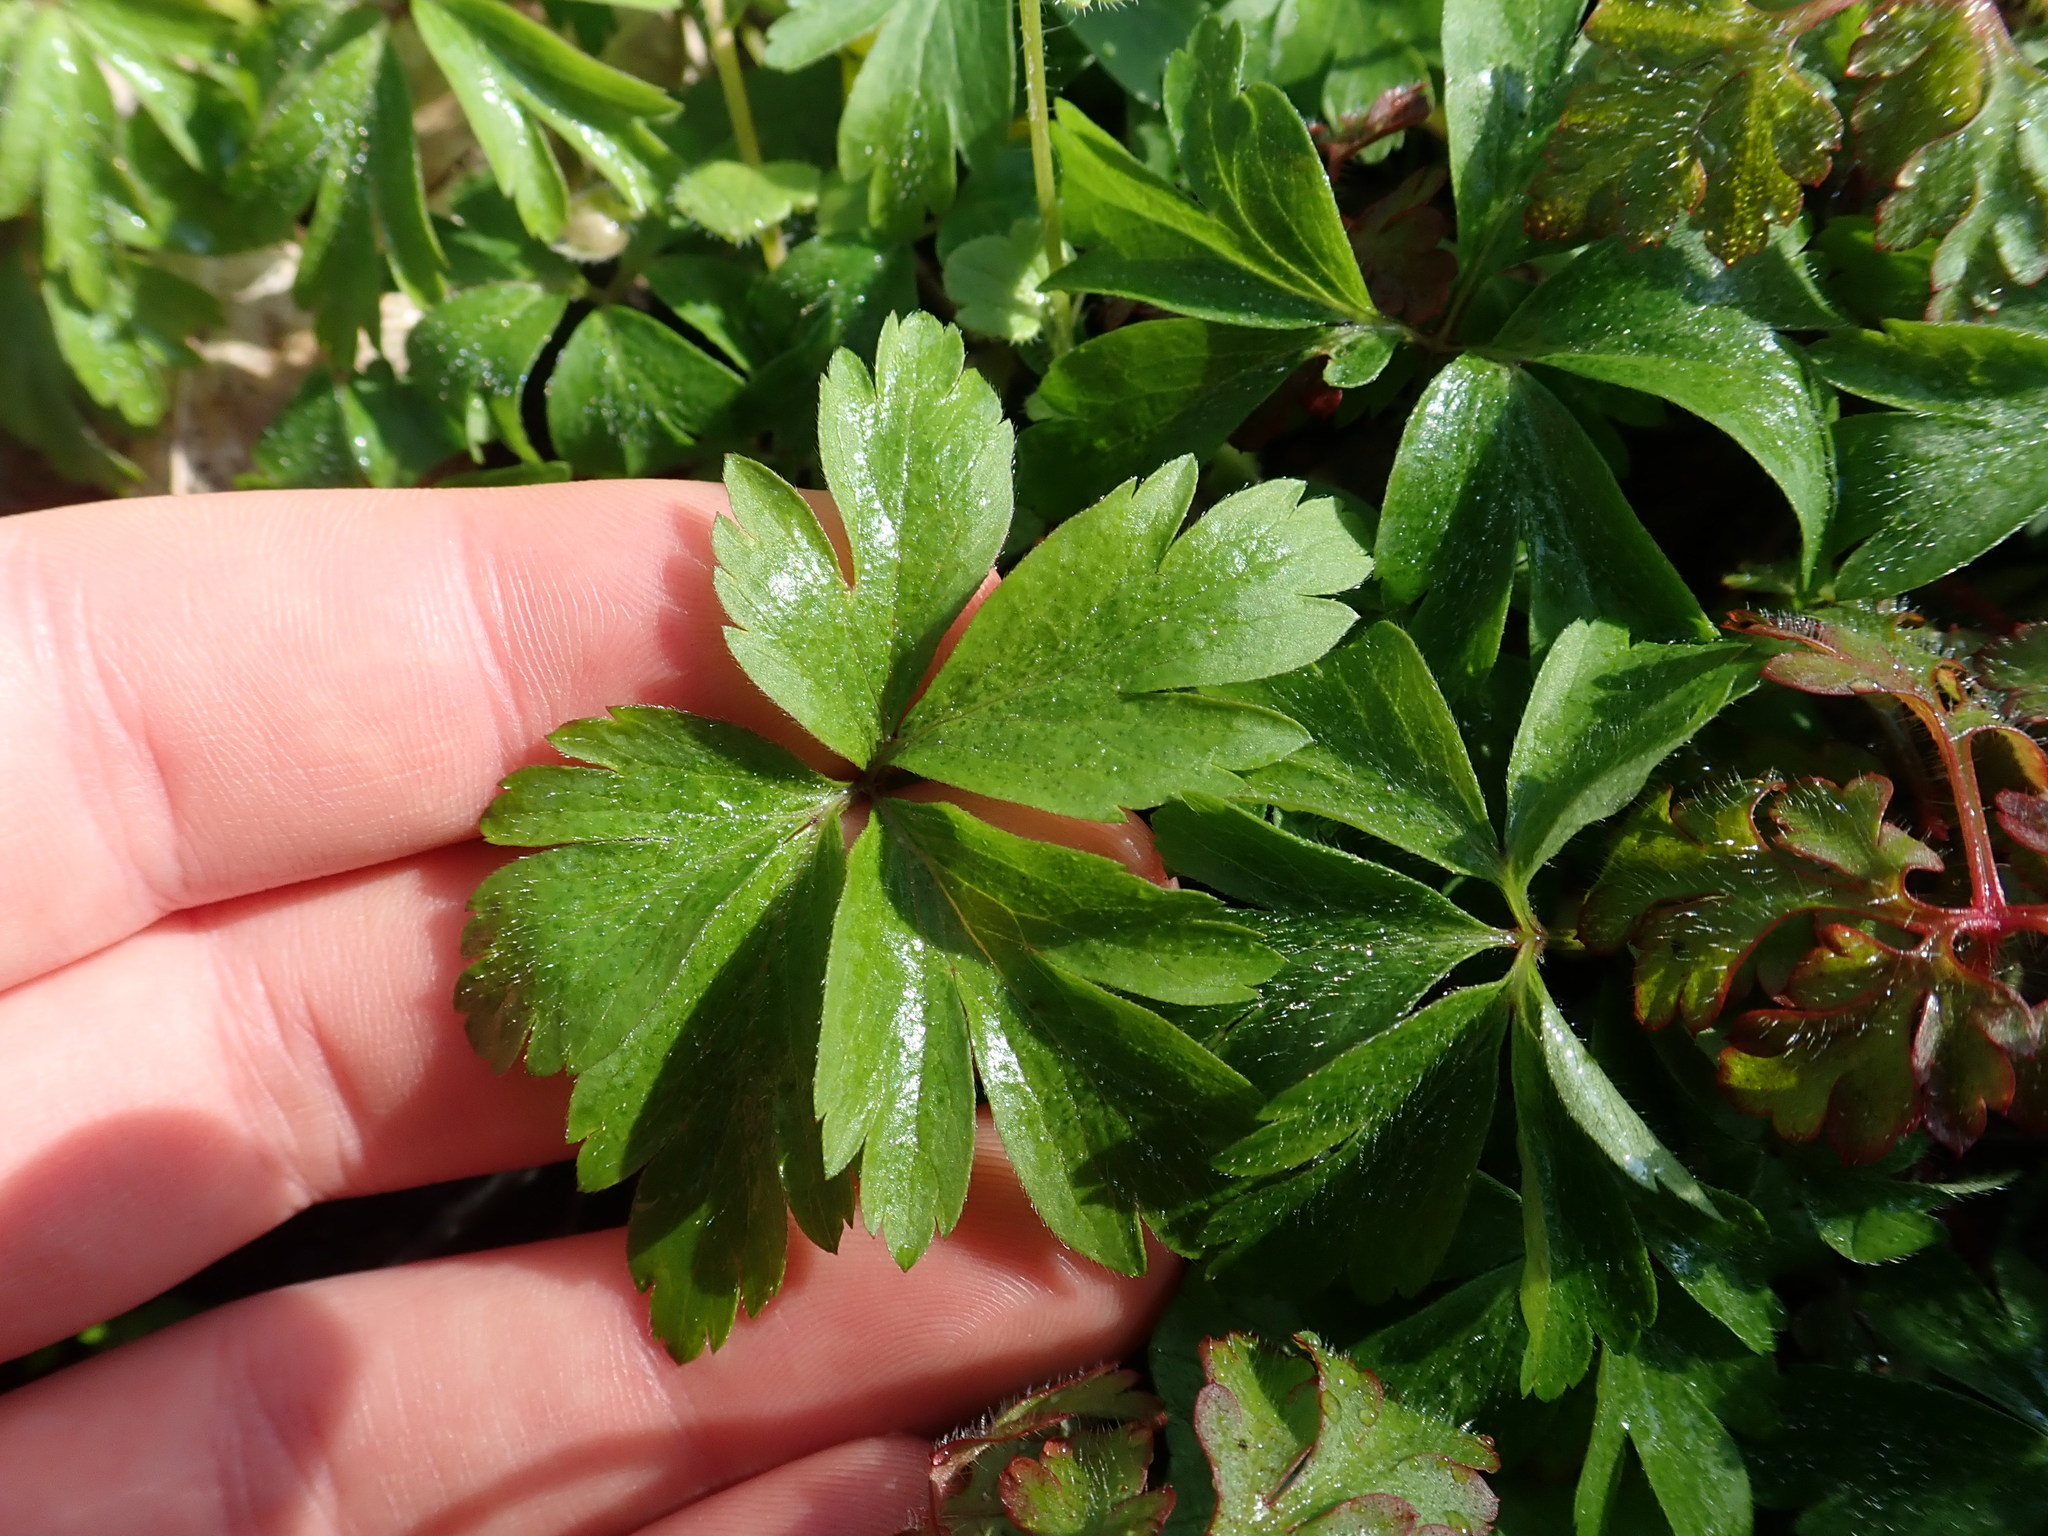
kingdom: Plantae
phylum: Tracheophyta
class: Magnoliopsida
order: Ranunculales
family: Ranunculaceae
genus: Anemone
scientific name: Anemone nemorosa
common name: Wood anemone
